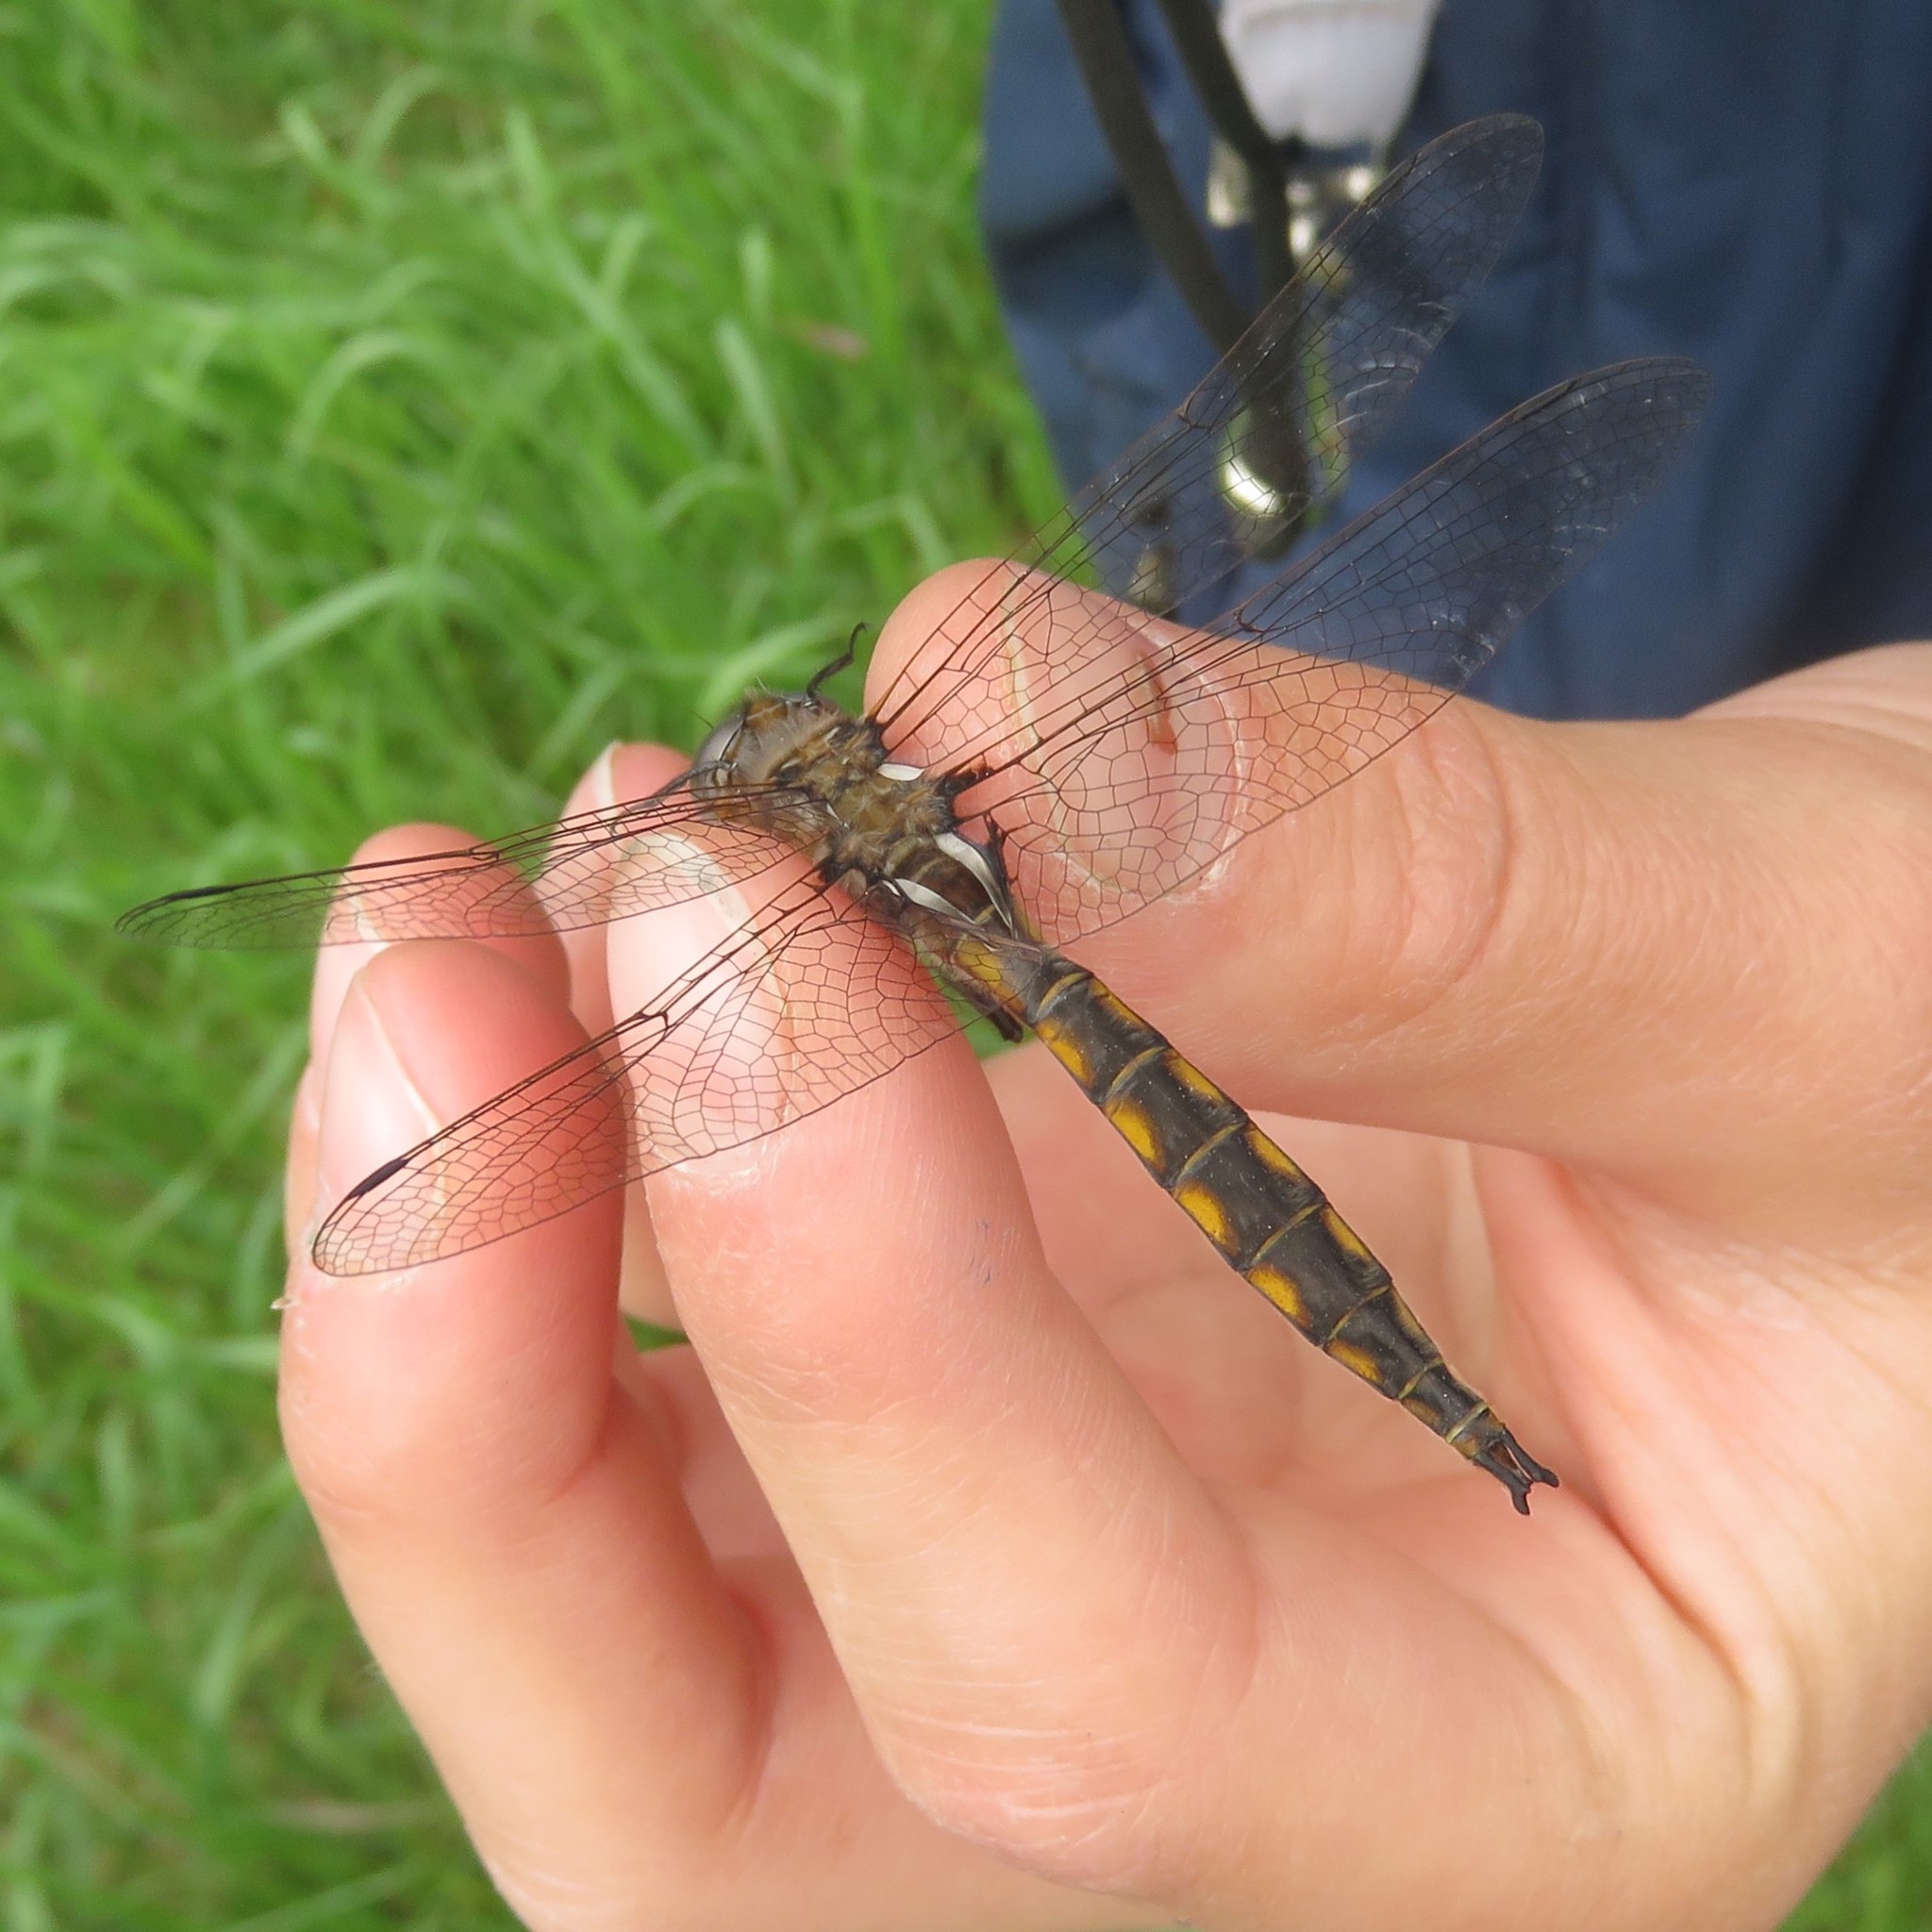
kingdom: Animalia
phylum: Arthropoda
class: Insecta
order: Odonata
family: Corduliidae
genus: Epitheca
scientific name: Epitheca canis
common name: Beaverpond baskettail
